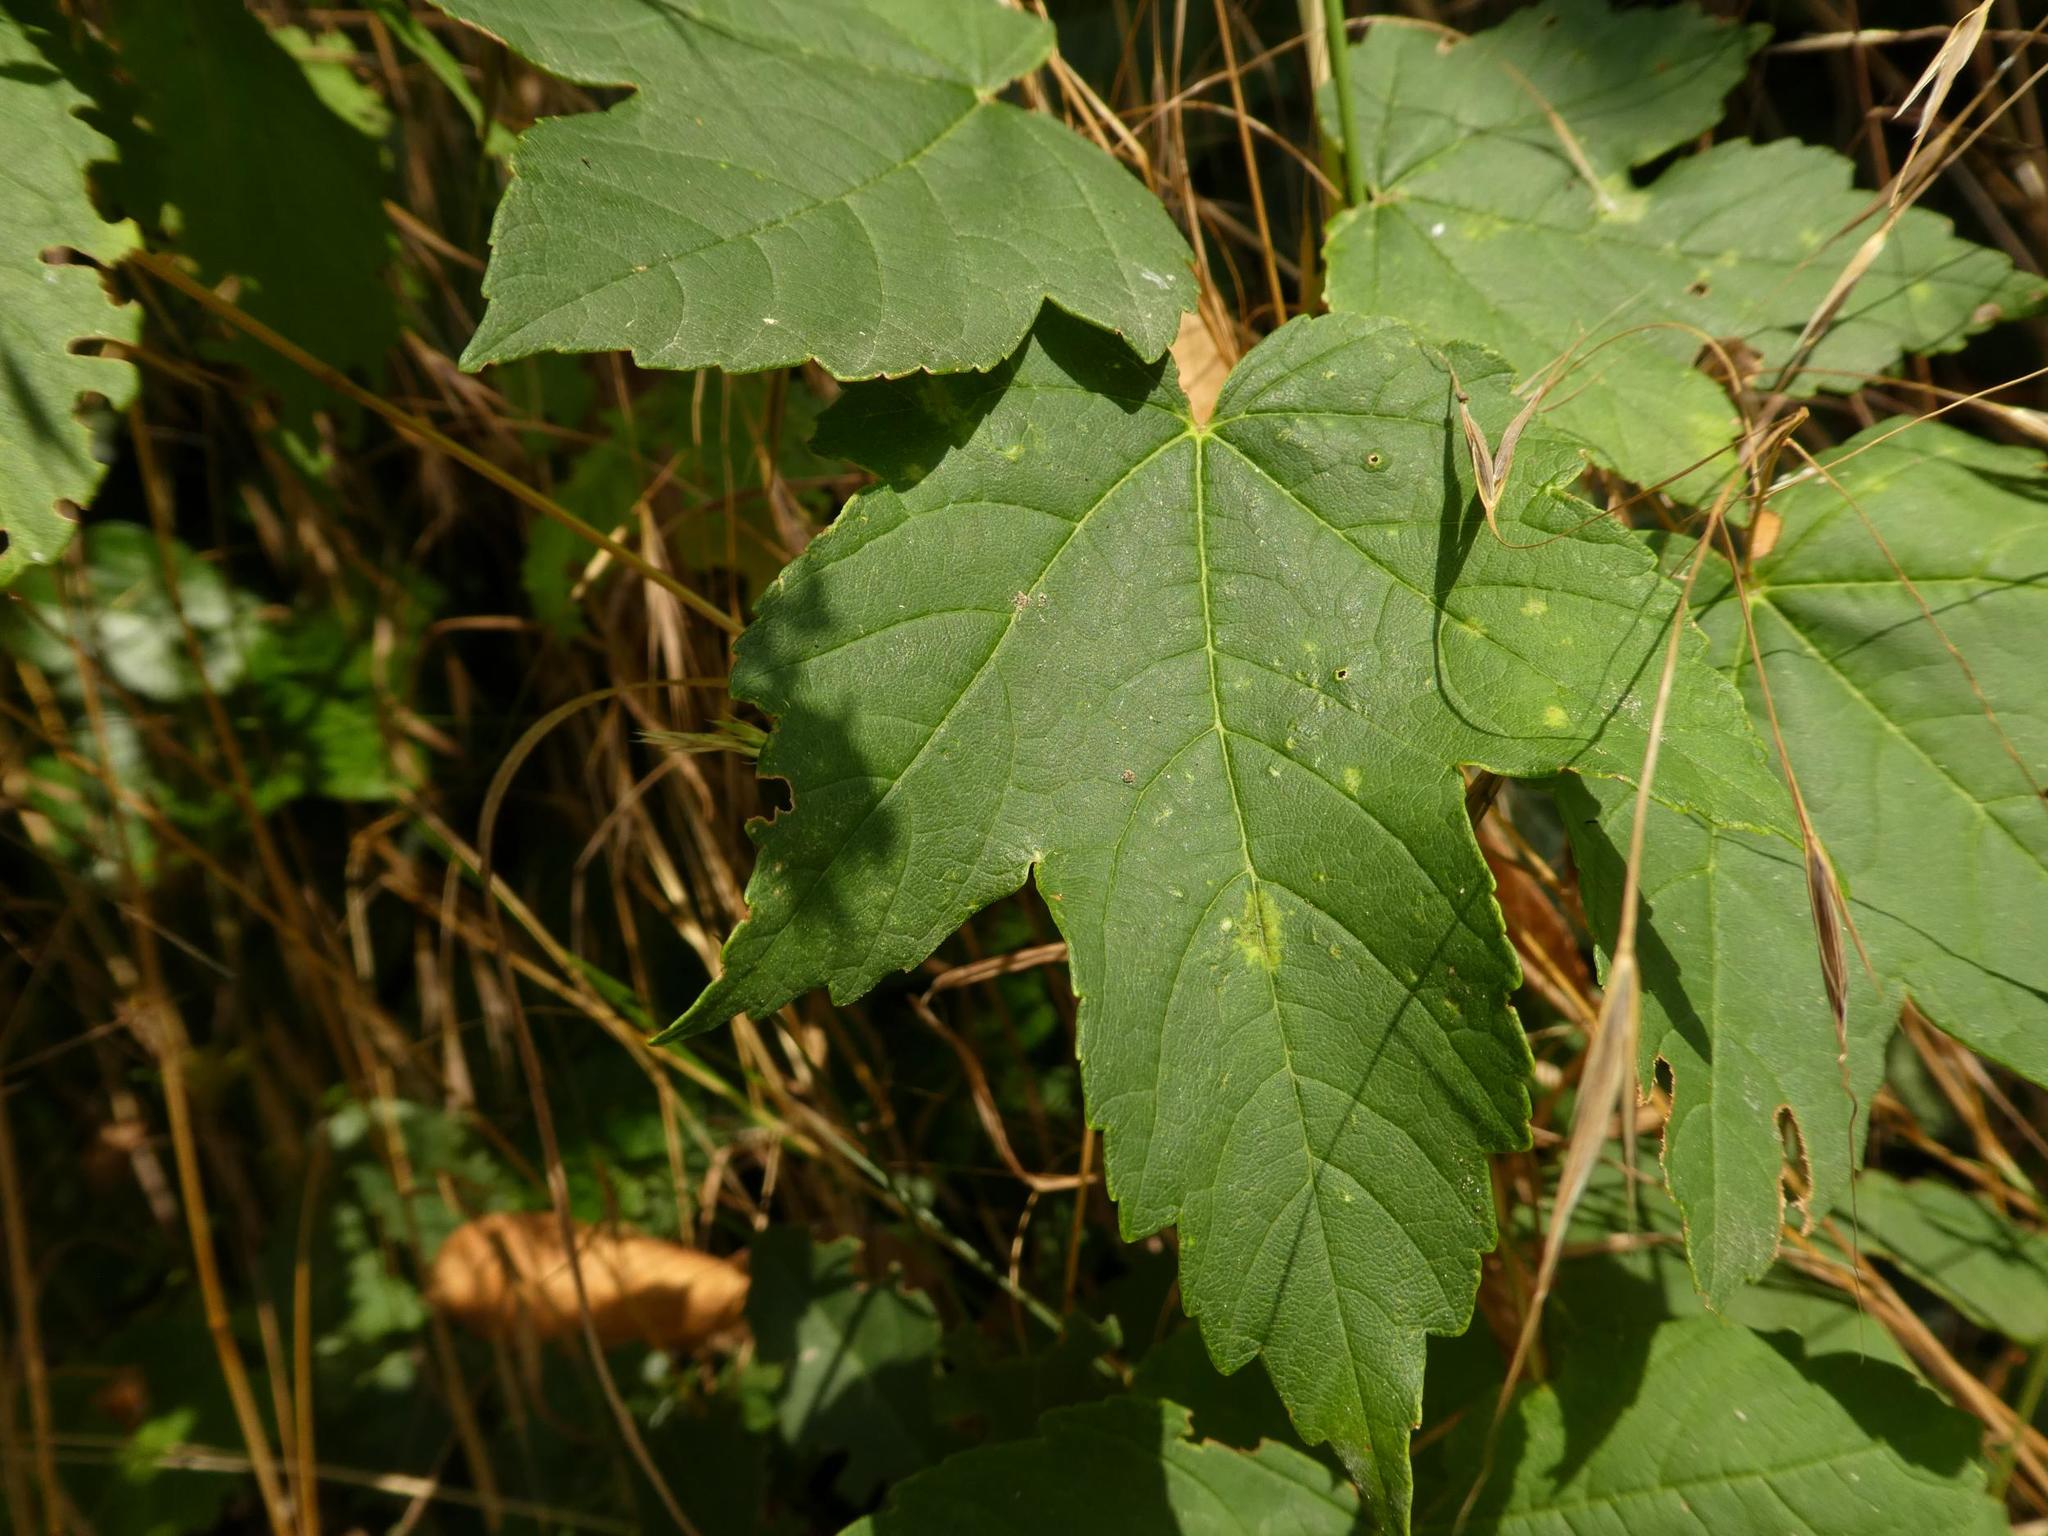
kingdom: Plantae
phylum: Tracheophyta
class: Magnoliopsida
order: Sapindales
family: Sapindaceae
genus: Acer
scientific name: Acer pseudoplatanus
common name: Sycamore
